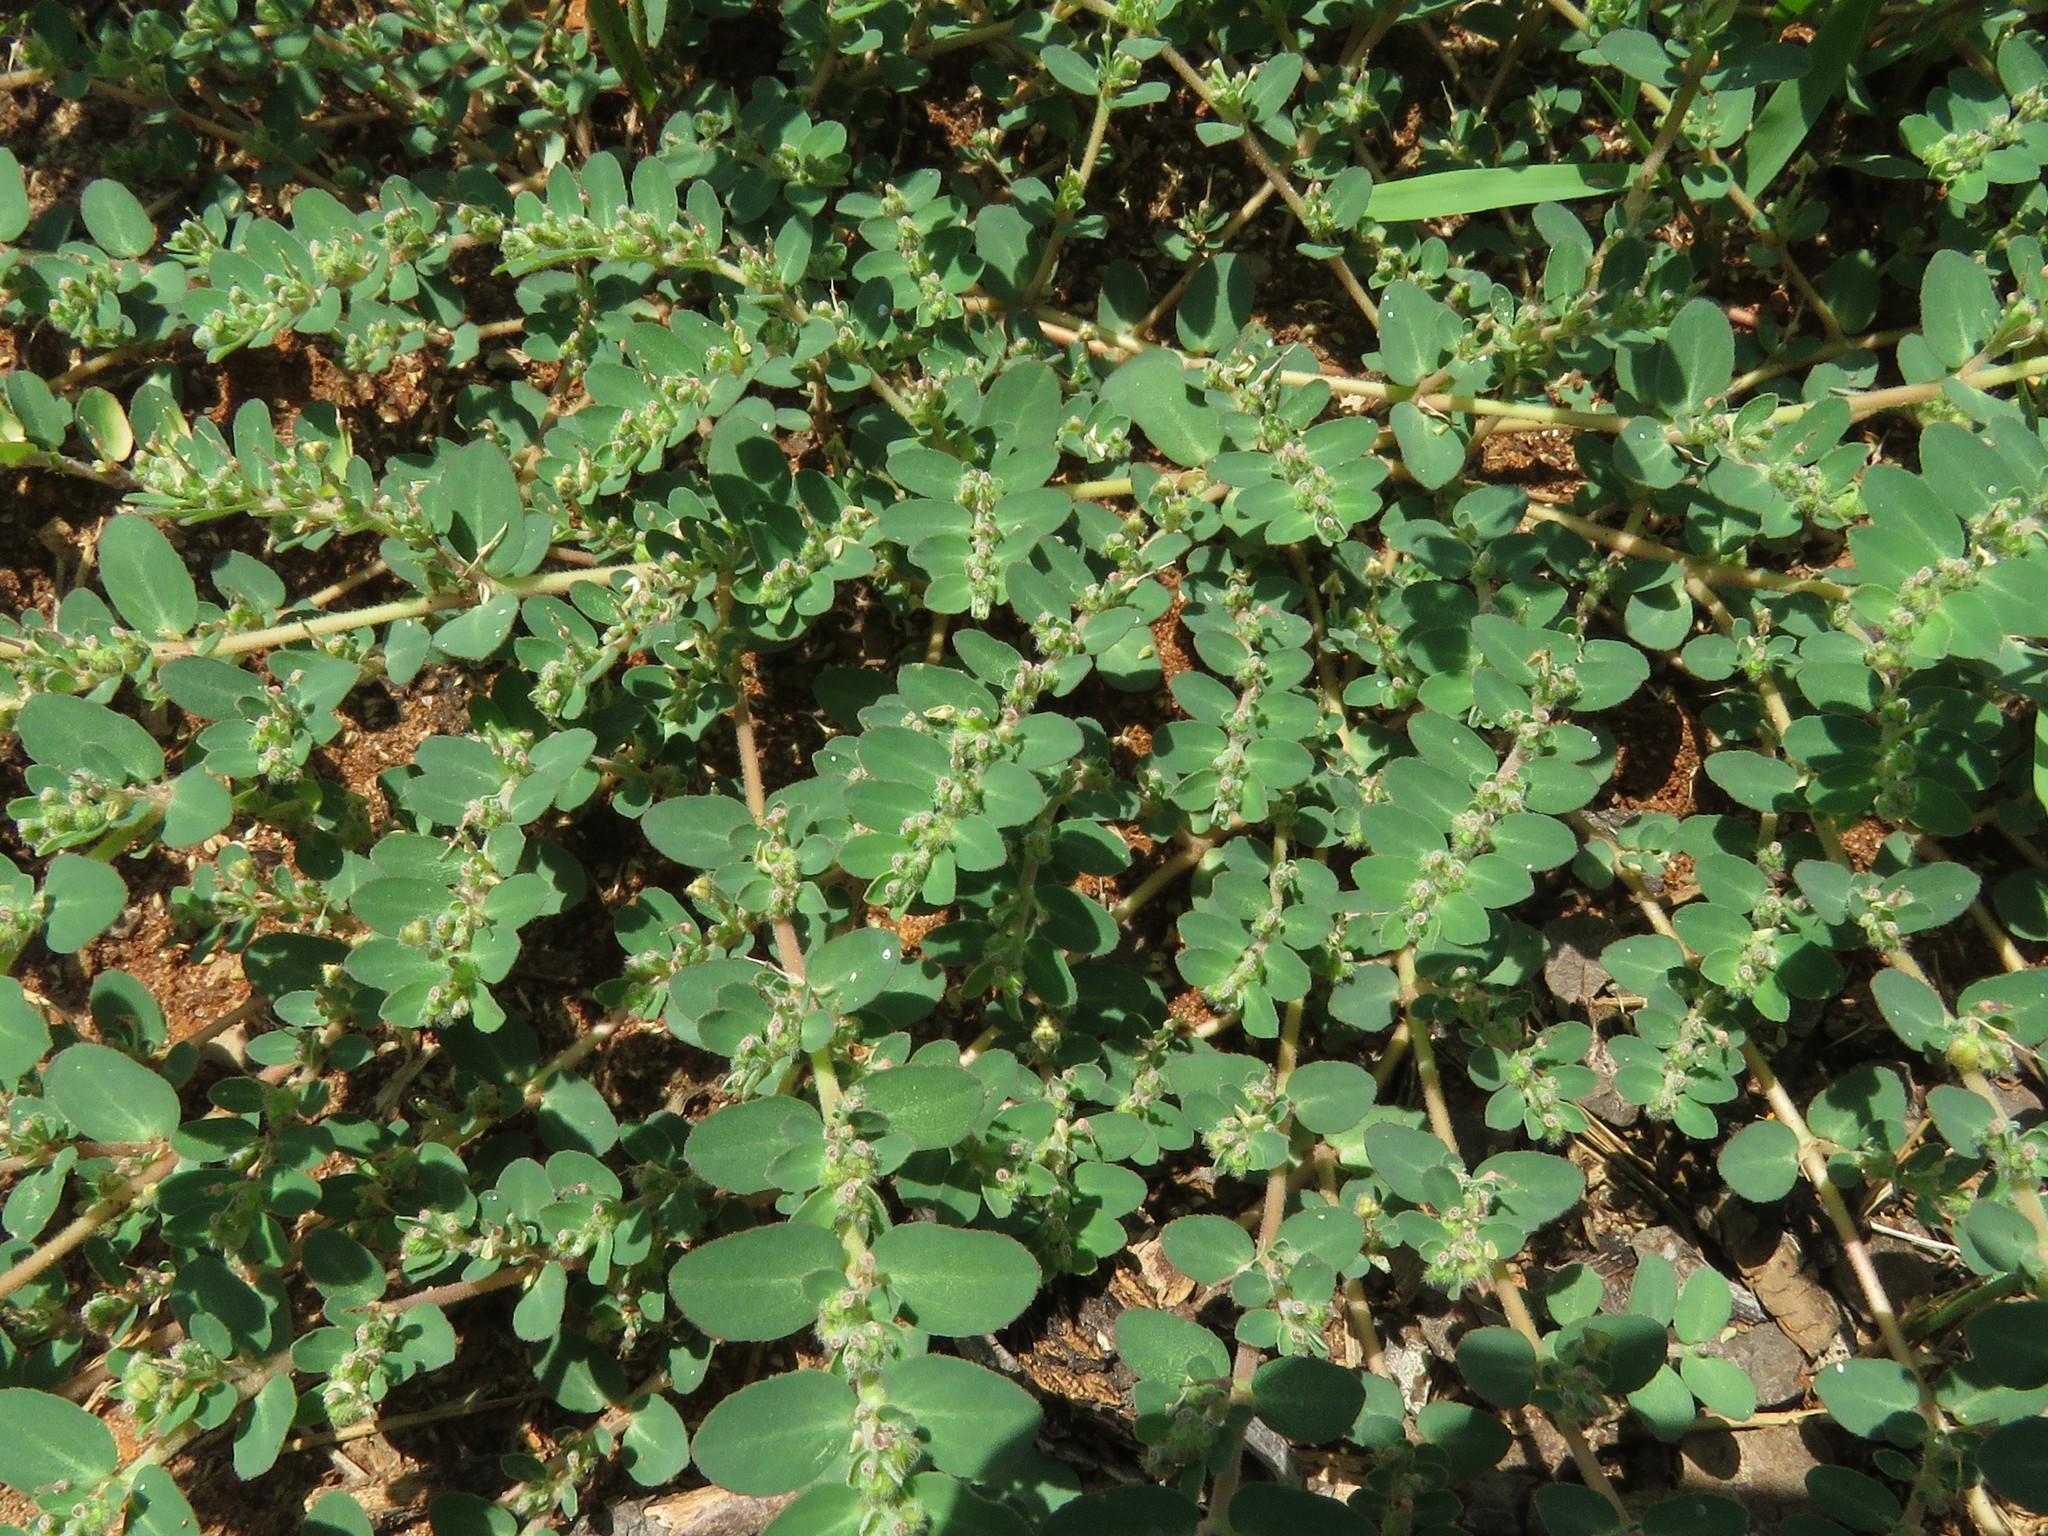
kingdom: Plantae
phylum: Tracheophyta
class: Magnoliopsida
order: Malpighiales
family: Euphorbiaceae
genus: Euphorbia
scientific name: Euphorbia prostrata
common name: Prostrate sandmat
